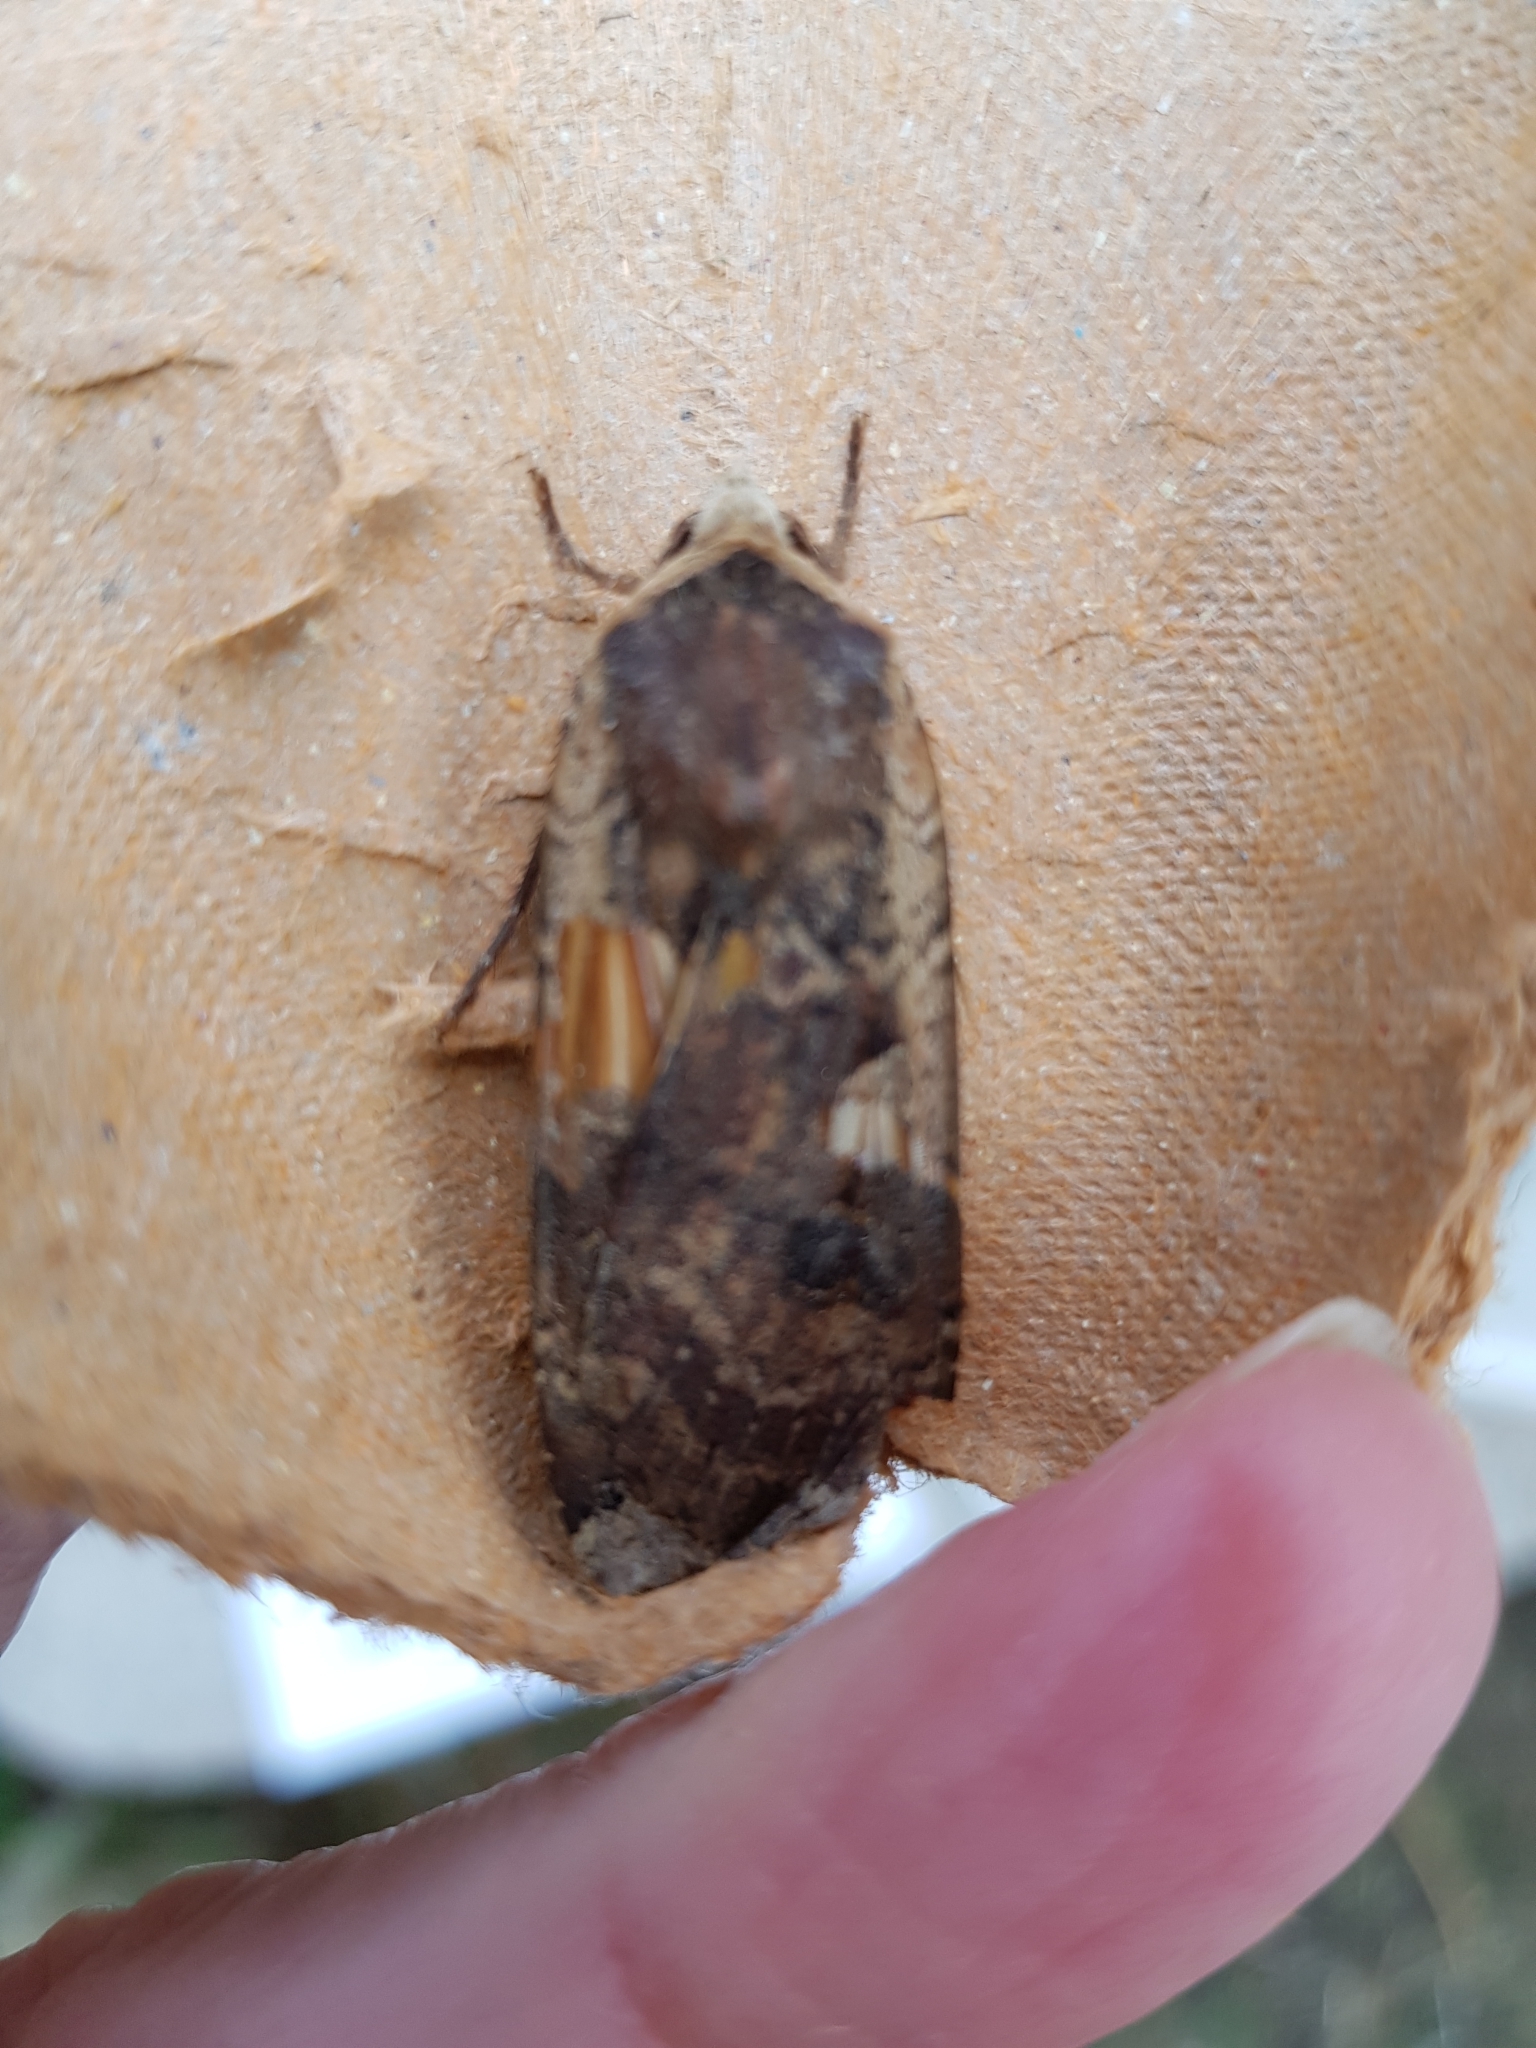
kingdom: Animalia
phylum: Arthropoda
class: Insecta
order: Lepidoptera
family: Noctuidae
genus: Noctua
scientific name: Noctua pronuba
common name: Large yellow underwing
